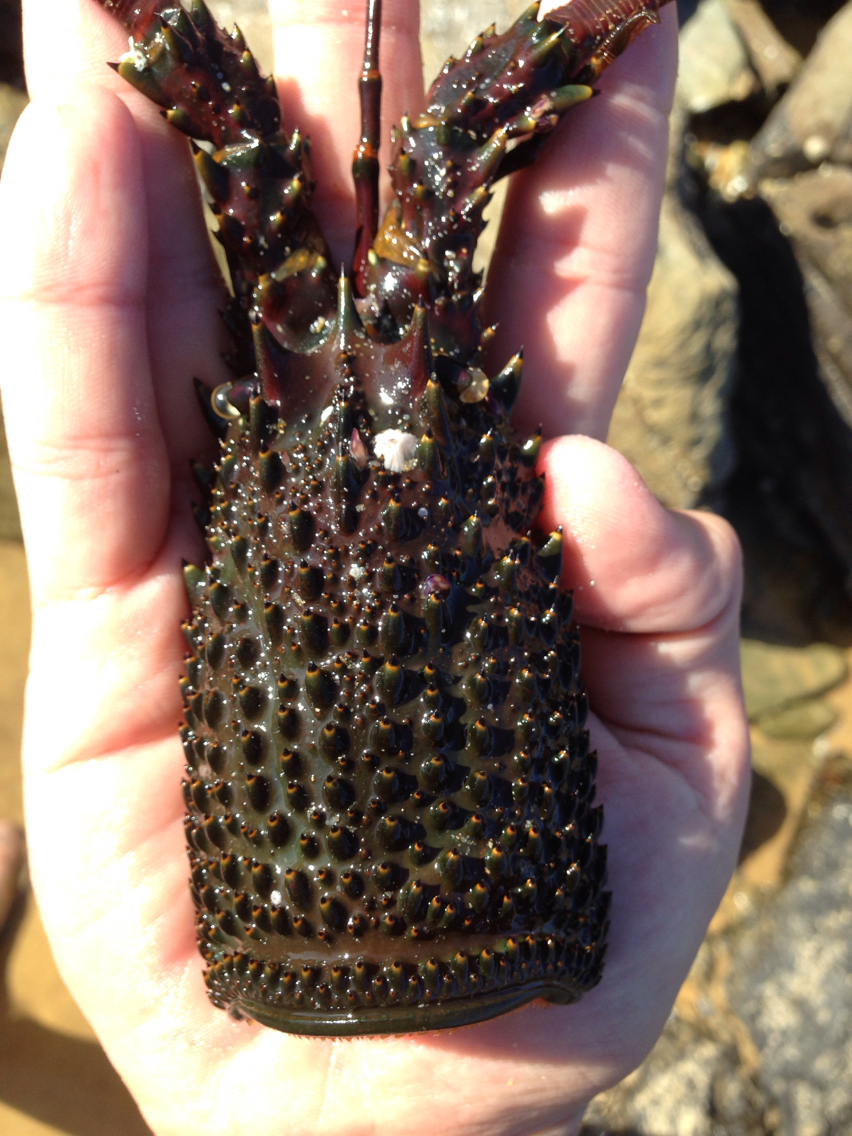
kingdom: Animalia
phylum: Arthropoda
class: Malacostraca
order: Decapoda
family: Palinuridae
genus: Sagmariasus
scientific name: Sagmariasus verreauxi
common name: Green rock lobster
